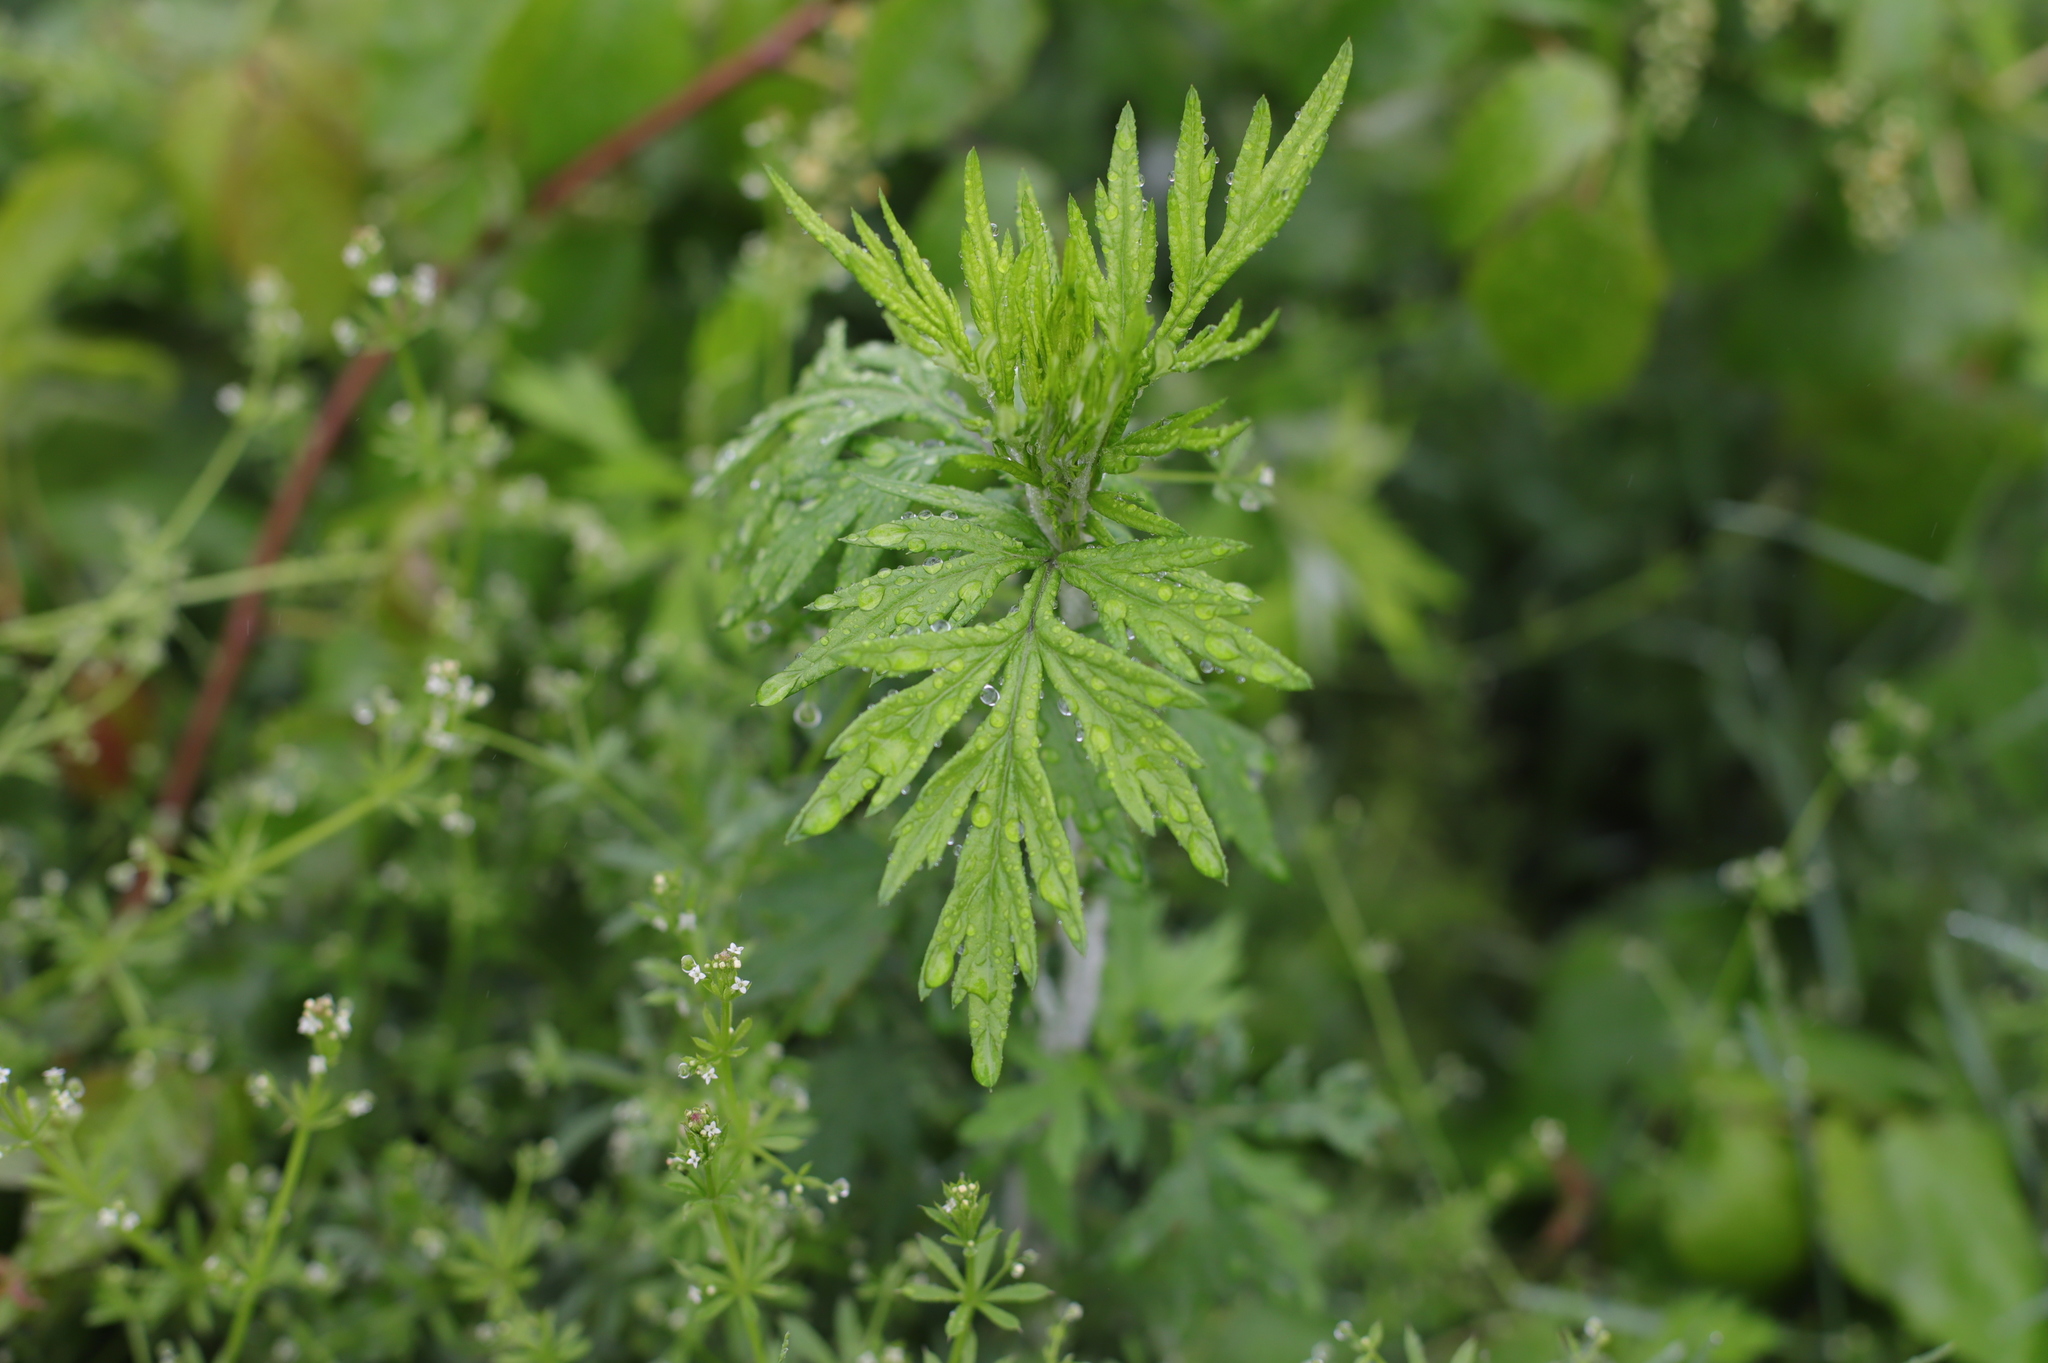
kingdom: Plantae
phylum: Tracheophyta
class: Magnoliopsida
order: Asterales
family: Asteraceae
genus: Artemisia
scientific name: Artemisia vulgaris
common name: Mugwort
